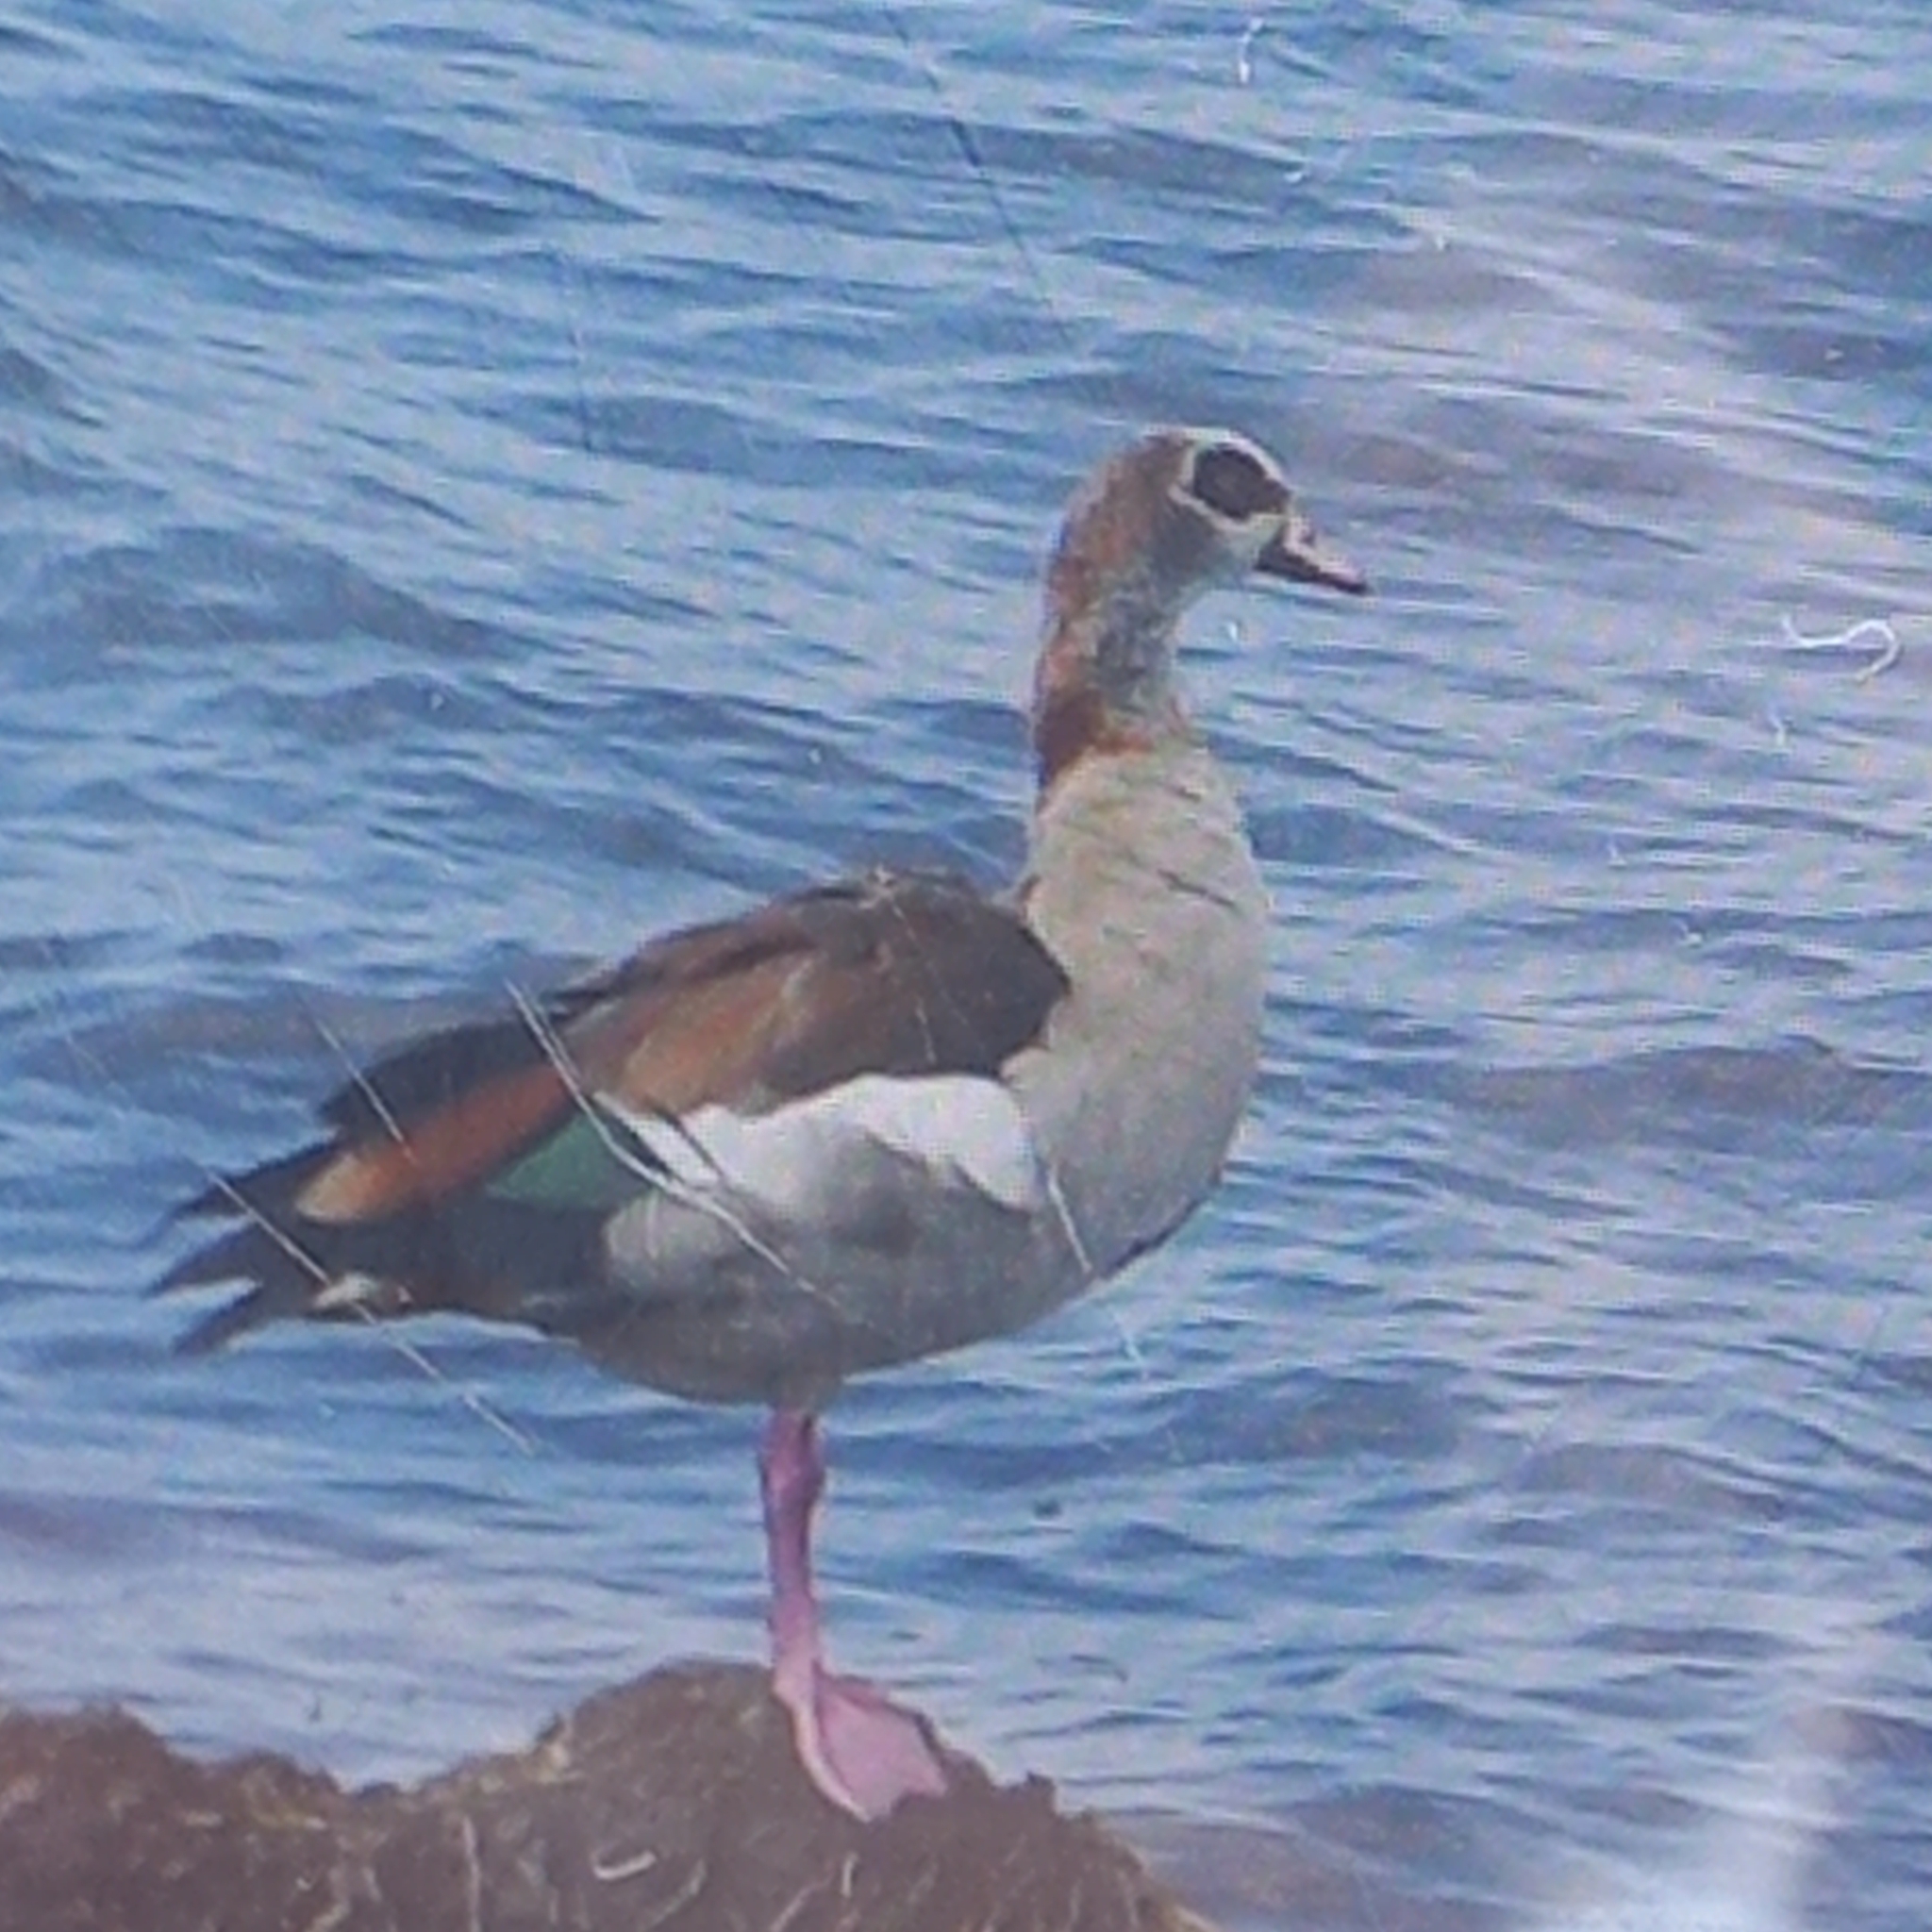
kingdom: Animalia
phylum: Chordata
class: Aves
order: Anseriformes
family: Anatidae
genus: Alopochen
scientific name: Alopochen aegyptiaca
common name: Egyptian goose
